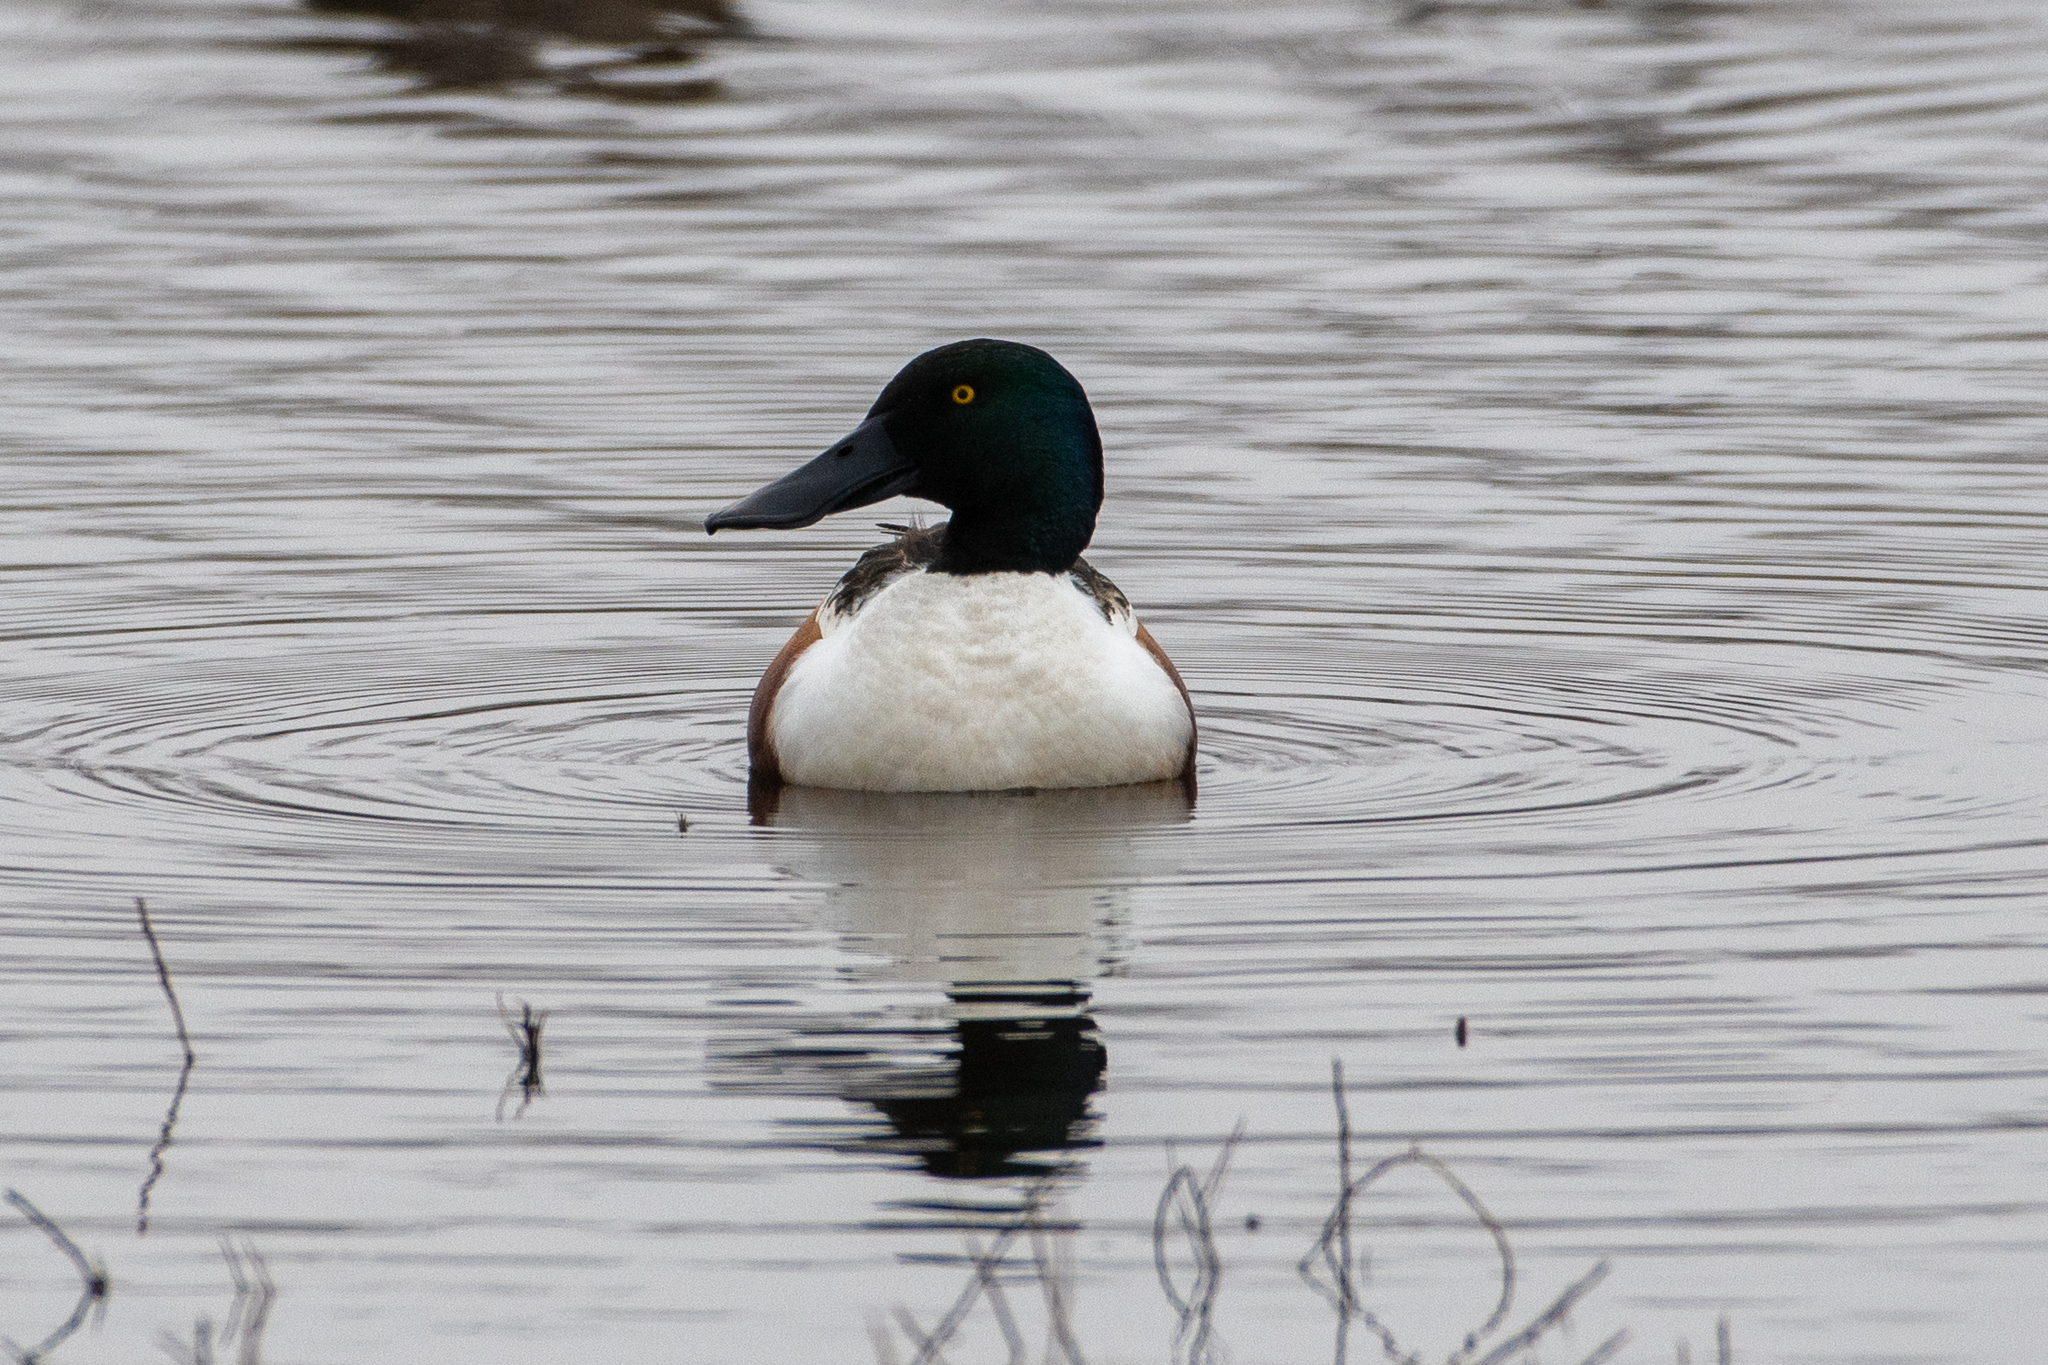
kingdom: Animalia
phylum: Chordata
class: Aves
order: Anseriformes
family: Anatidae
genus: Spatula
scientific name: Spatula clypeata
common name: Northern shoveler
